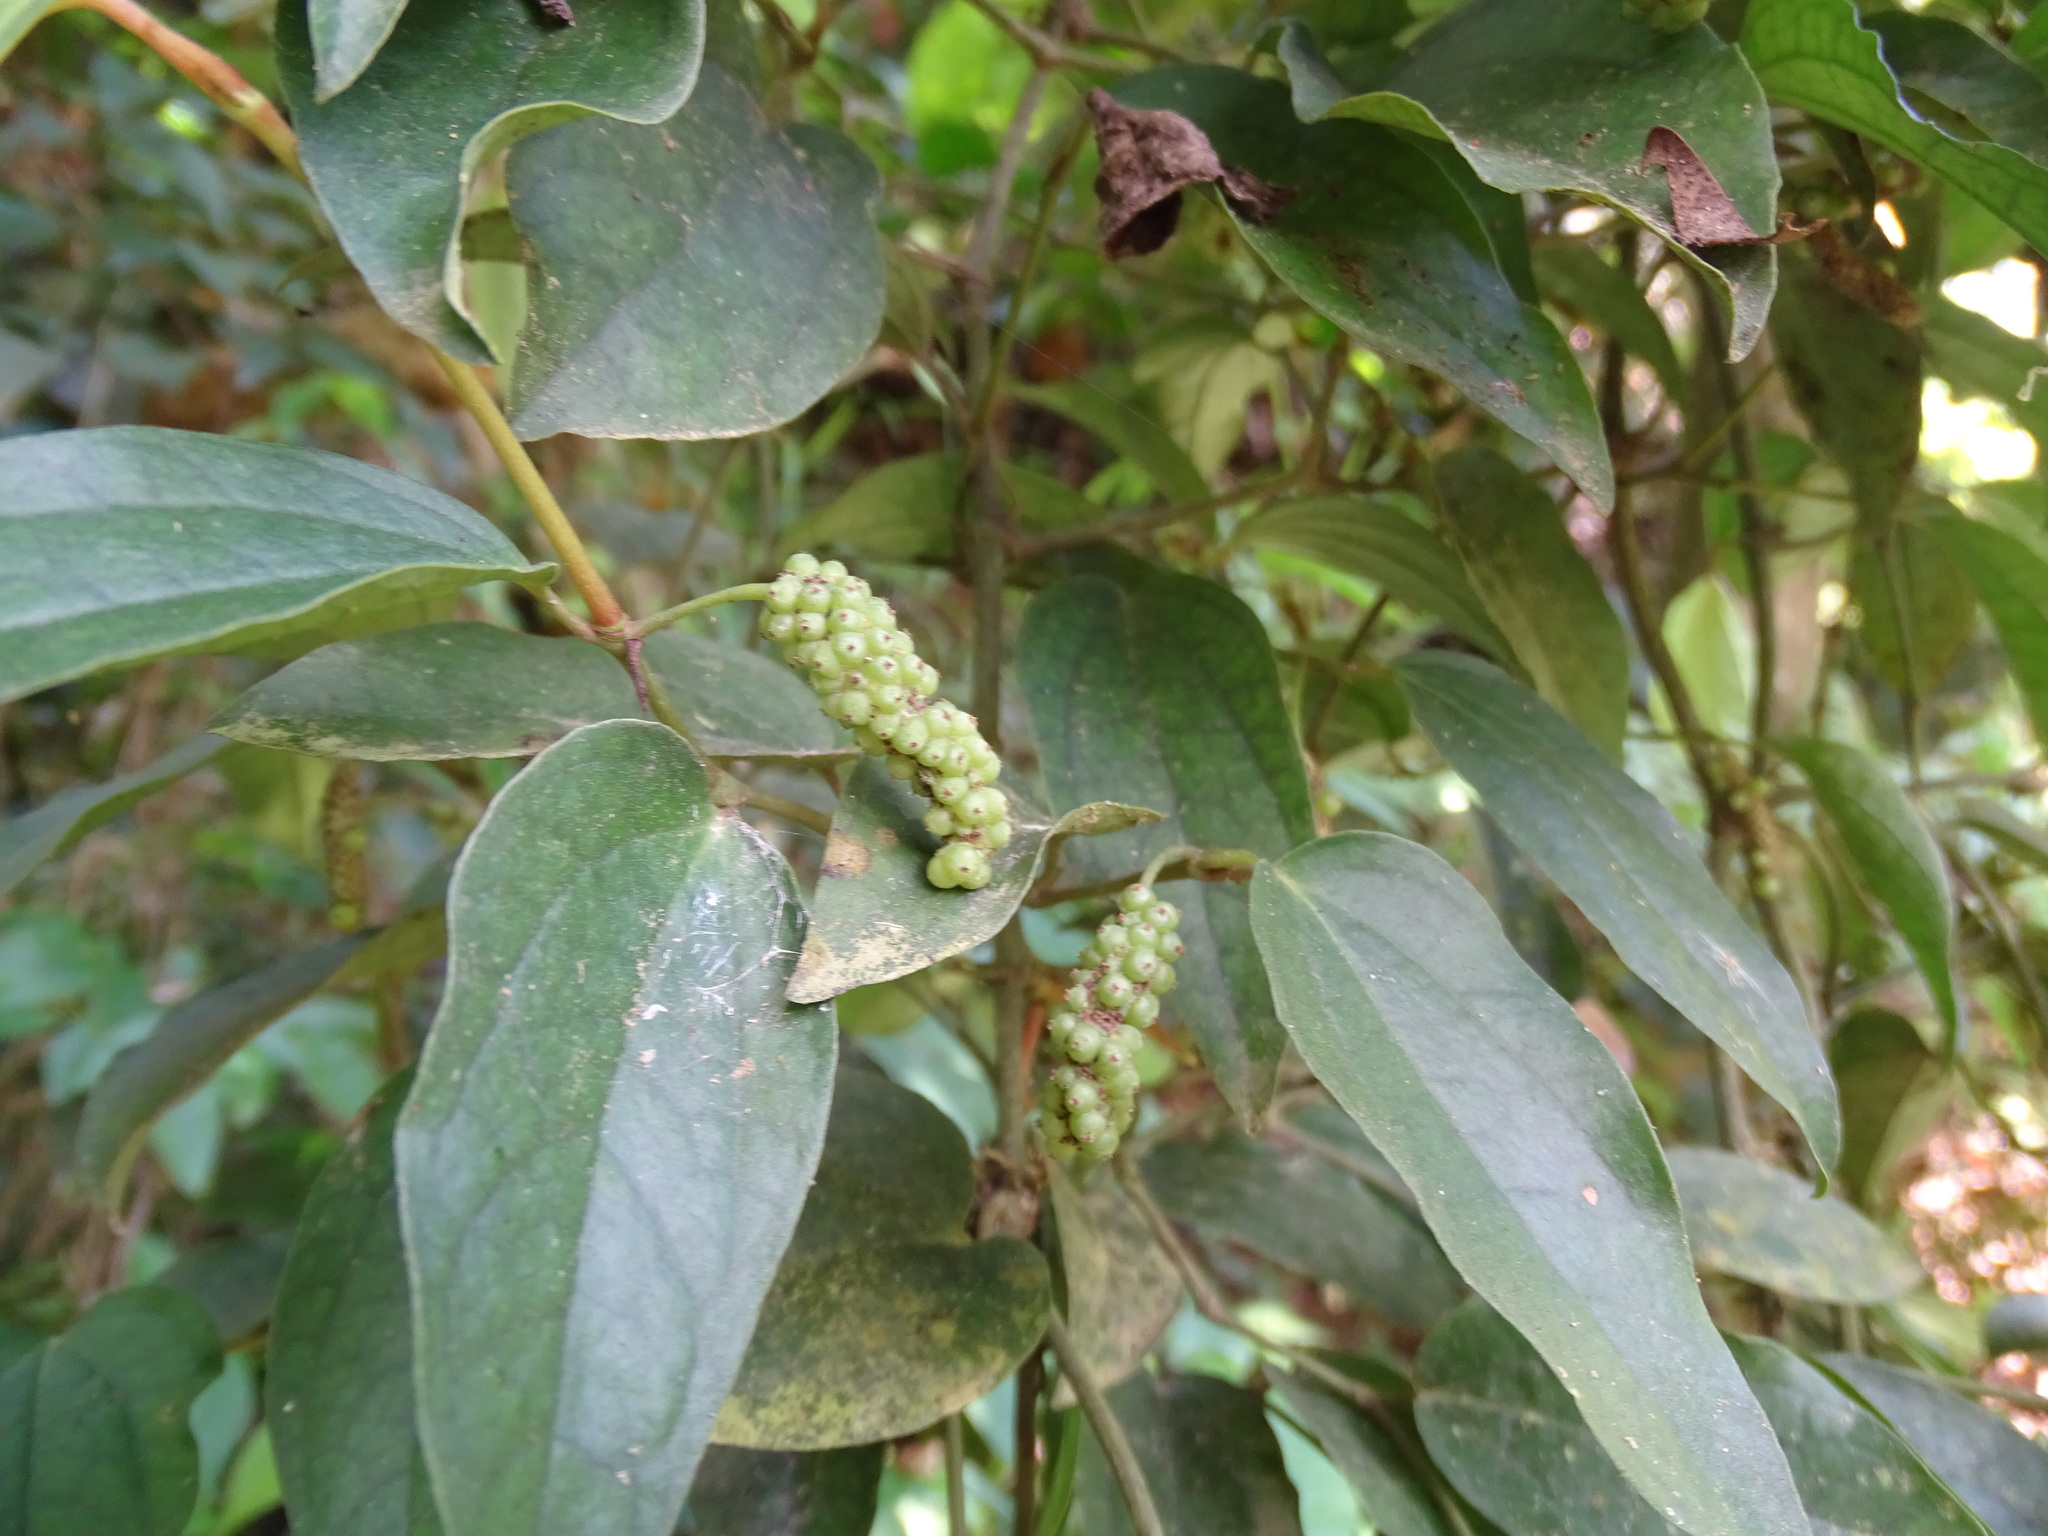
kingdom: Plantae
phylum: Tracheophyta
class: Magnoliopsida
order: Piperales
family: Piperaceae
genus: Piper
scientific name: Piper kadsura
